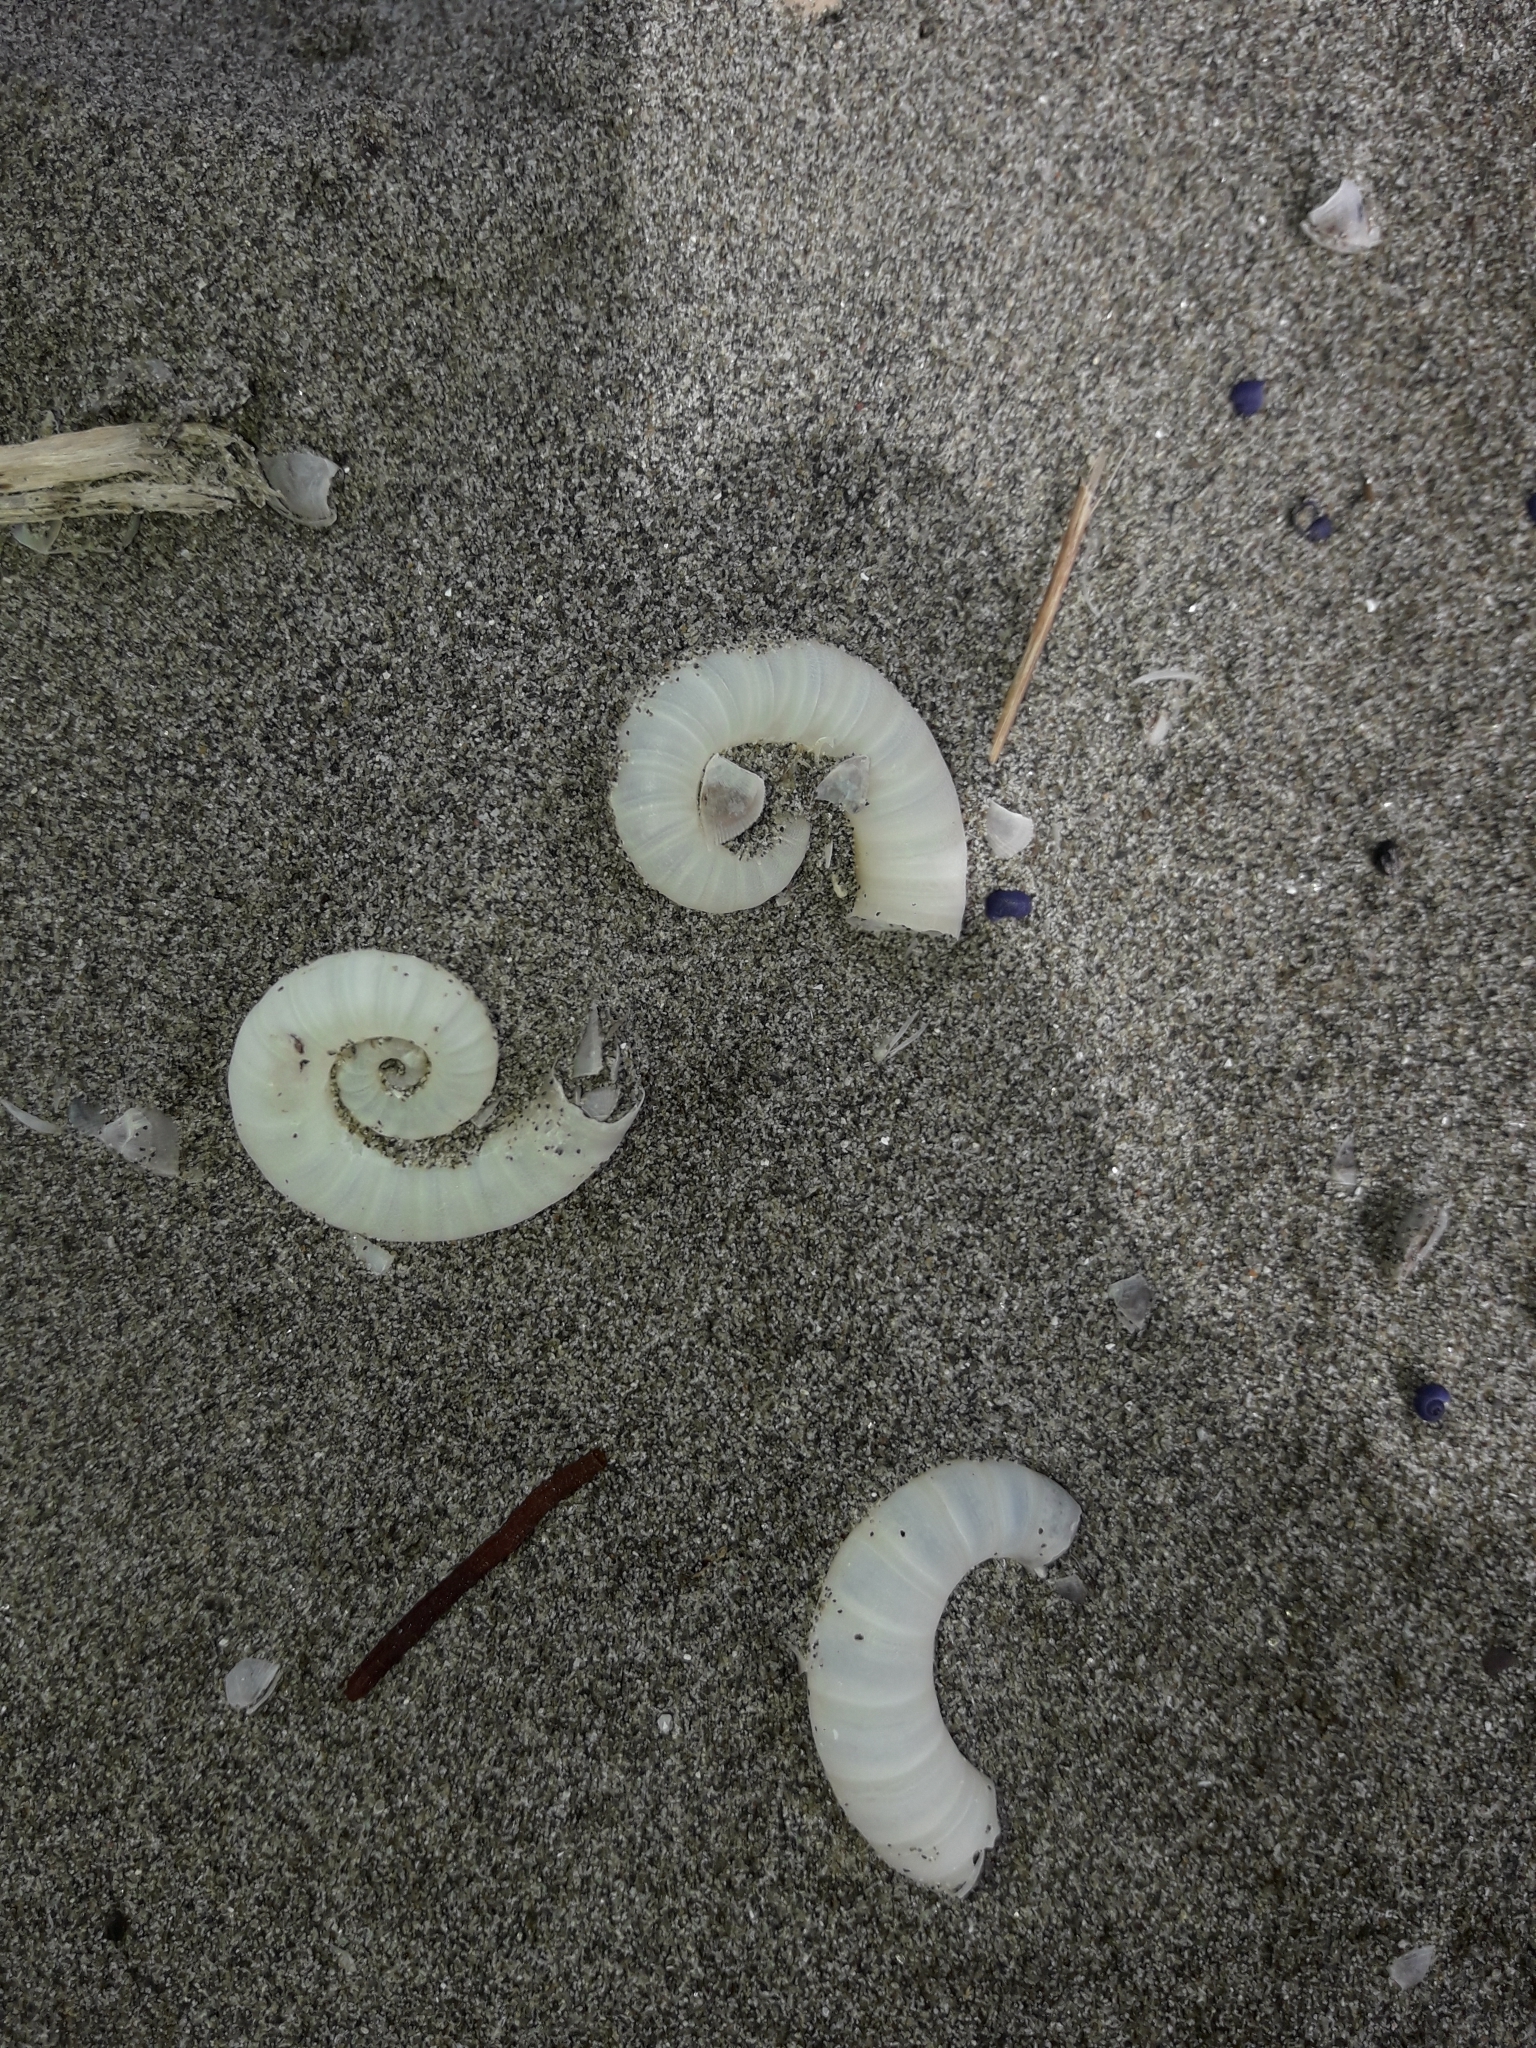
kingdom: Animalia
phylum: Mollusca
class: Cephalopoda
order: Spirulida
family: Spirulidae
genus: Spirula
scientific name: Spirula spirula
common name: Ram's horn squid
